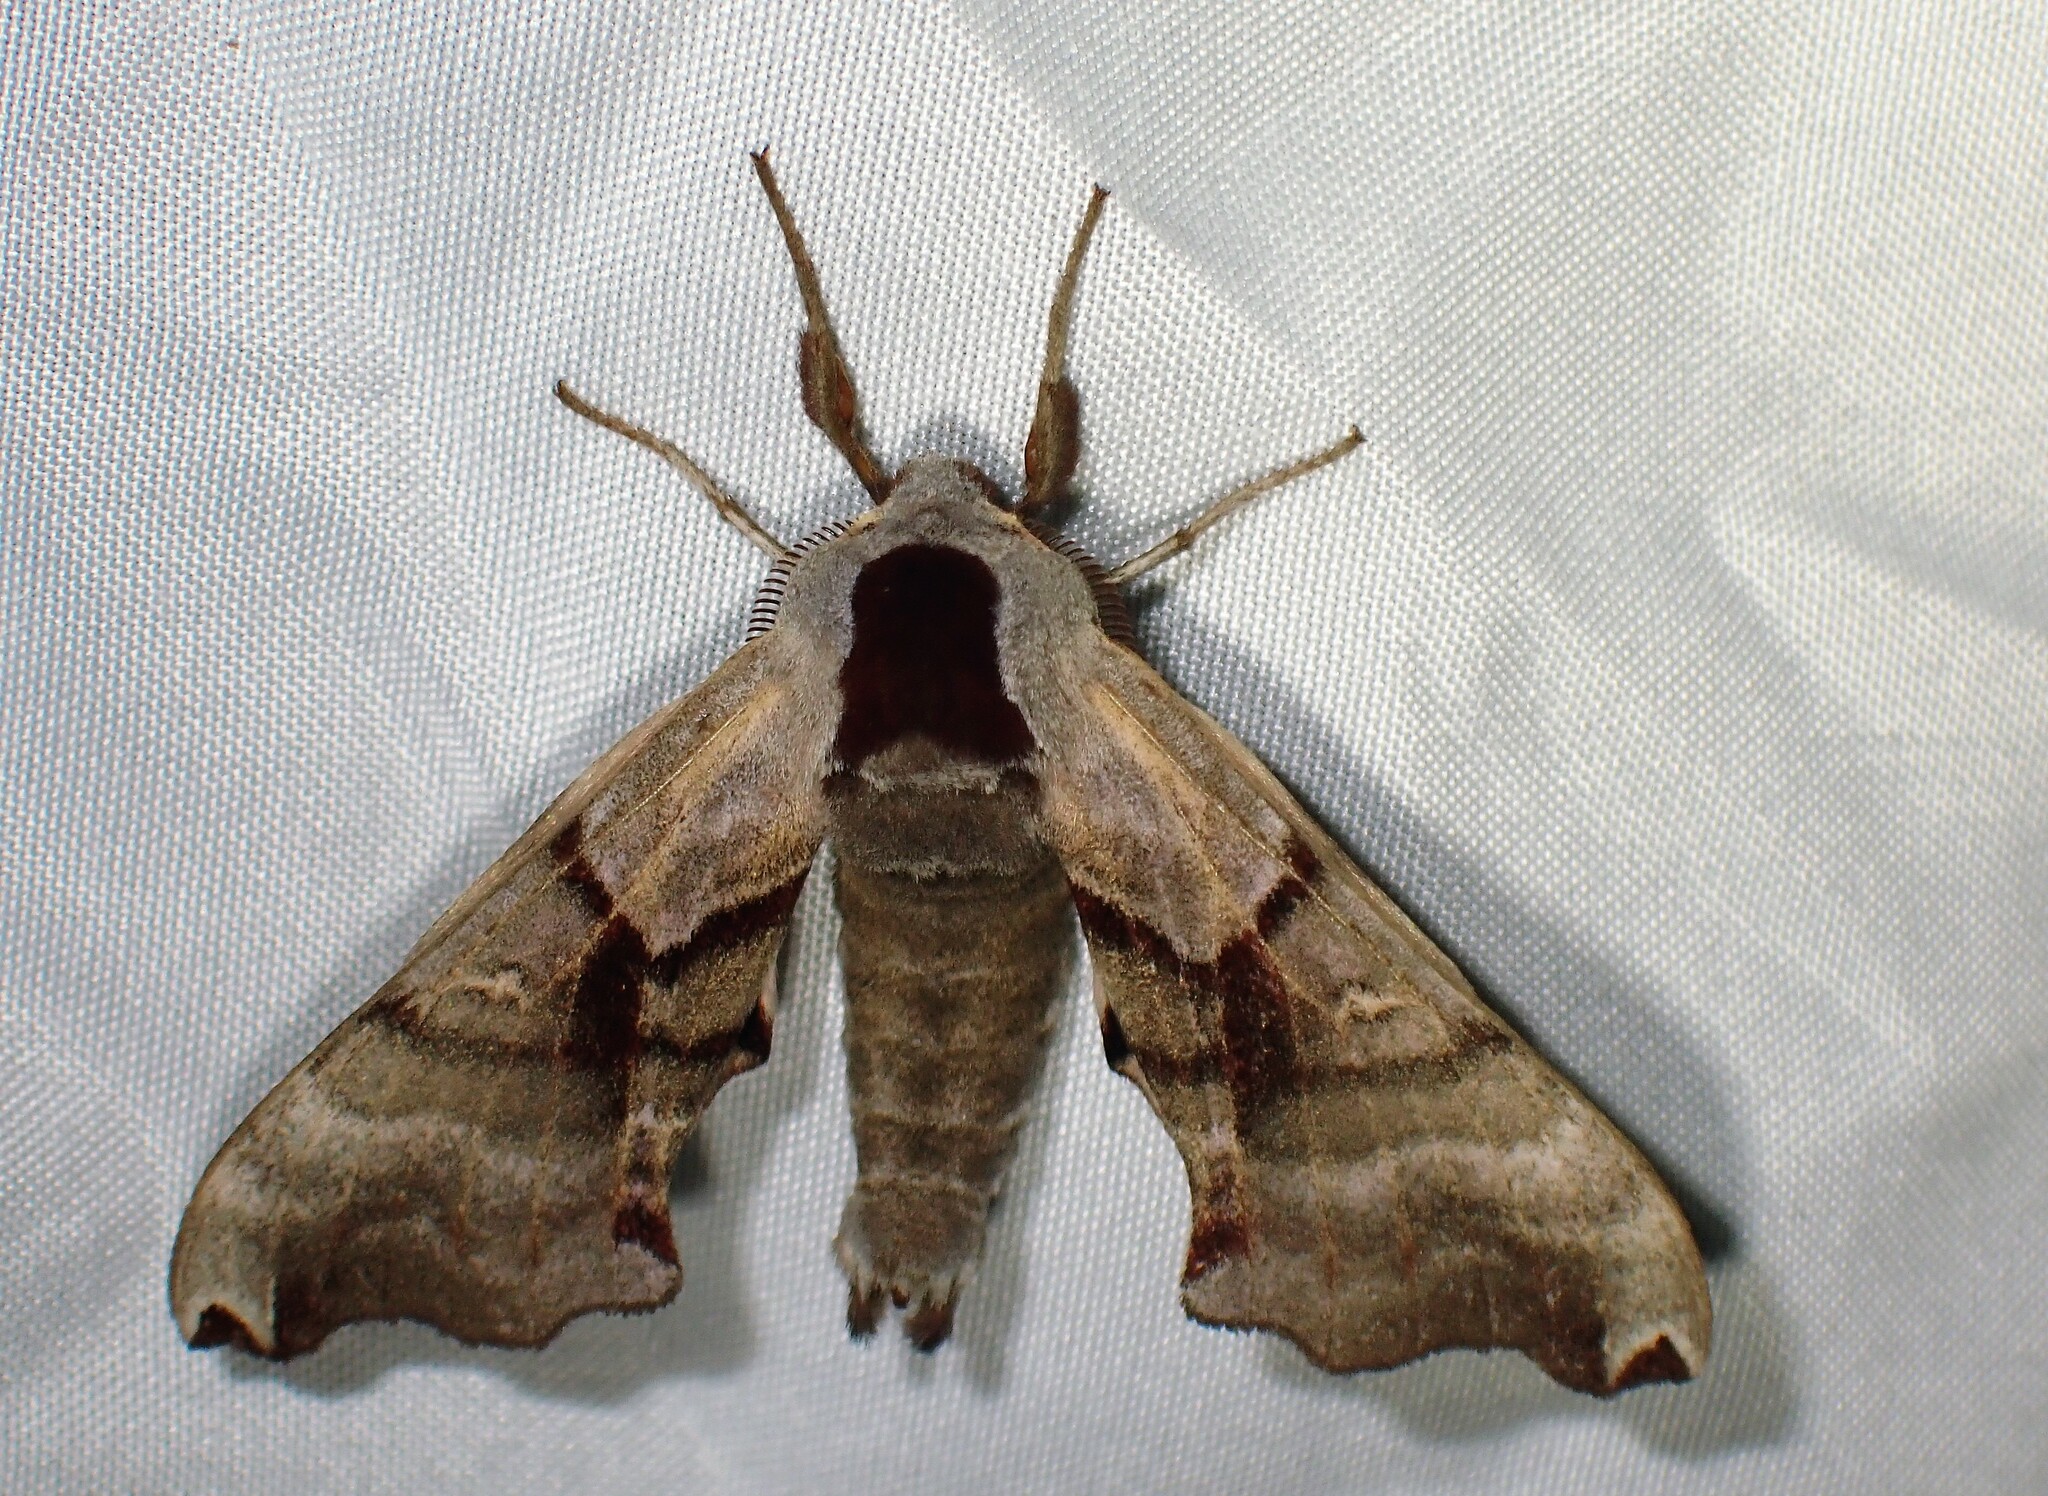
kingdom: Animalia
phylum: Arthropoda
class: Insecta
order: Lepidoptera
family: Sphingidae
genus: Smerinthus
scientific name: Smerinthus jamaicensis
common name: Twin spotted sphinx
